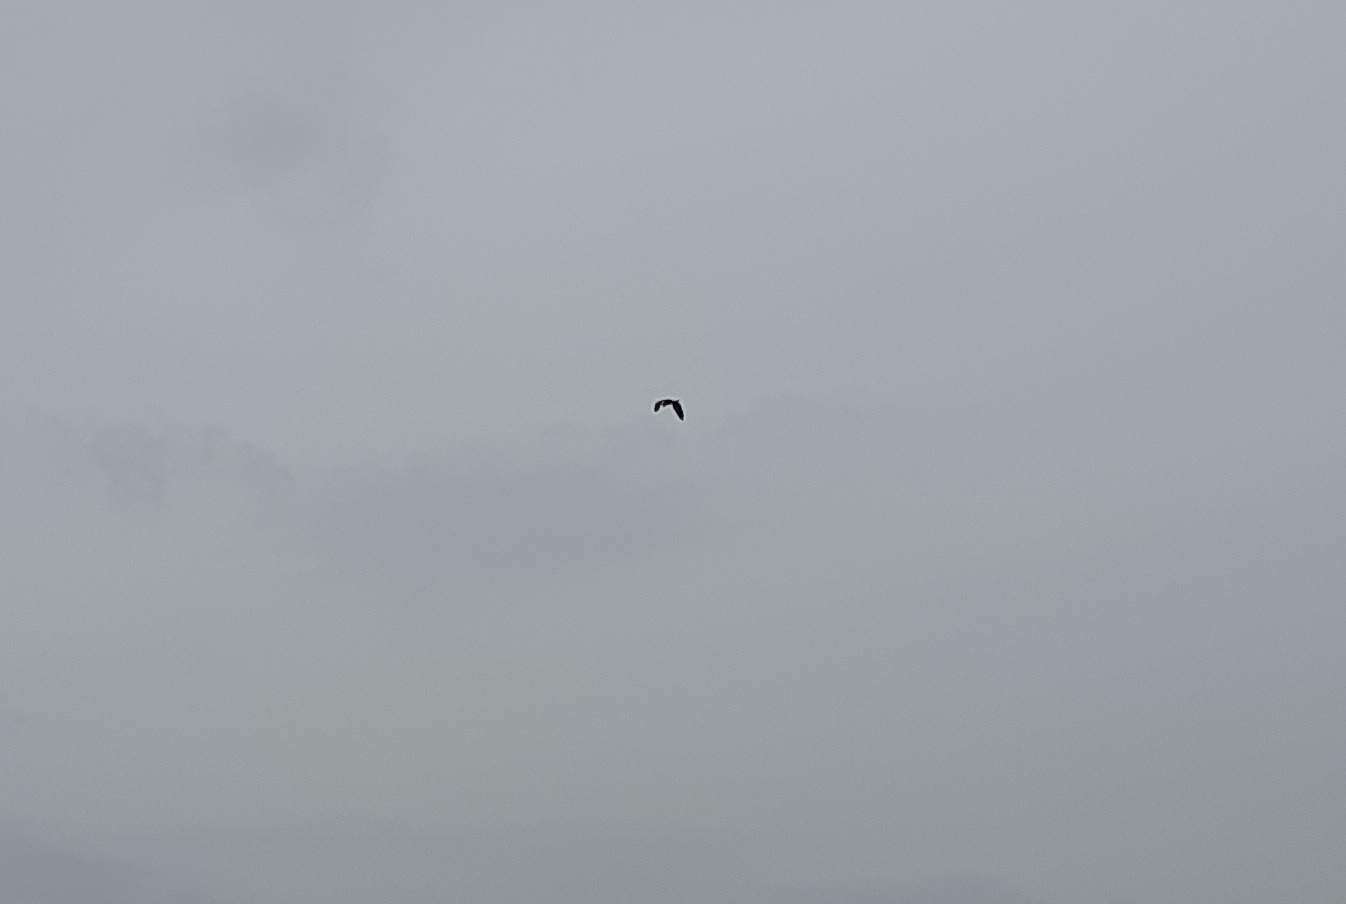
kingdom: Animalia
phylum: Chordata
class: Aves
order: Pelecaniformes
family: Ardeidae
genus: Ardea
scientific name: Ardea purpurea
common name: Purple heron
